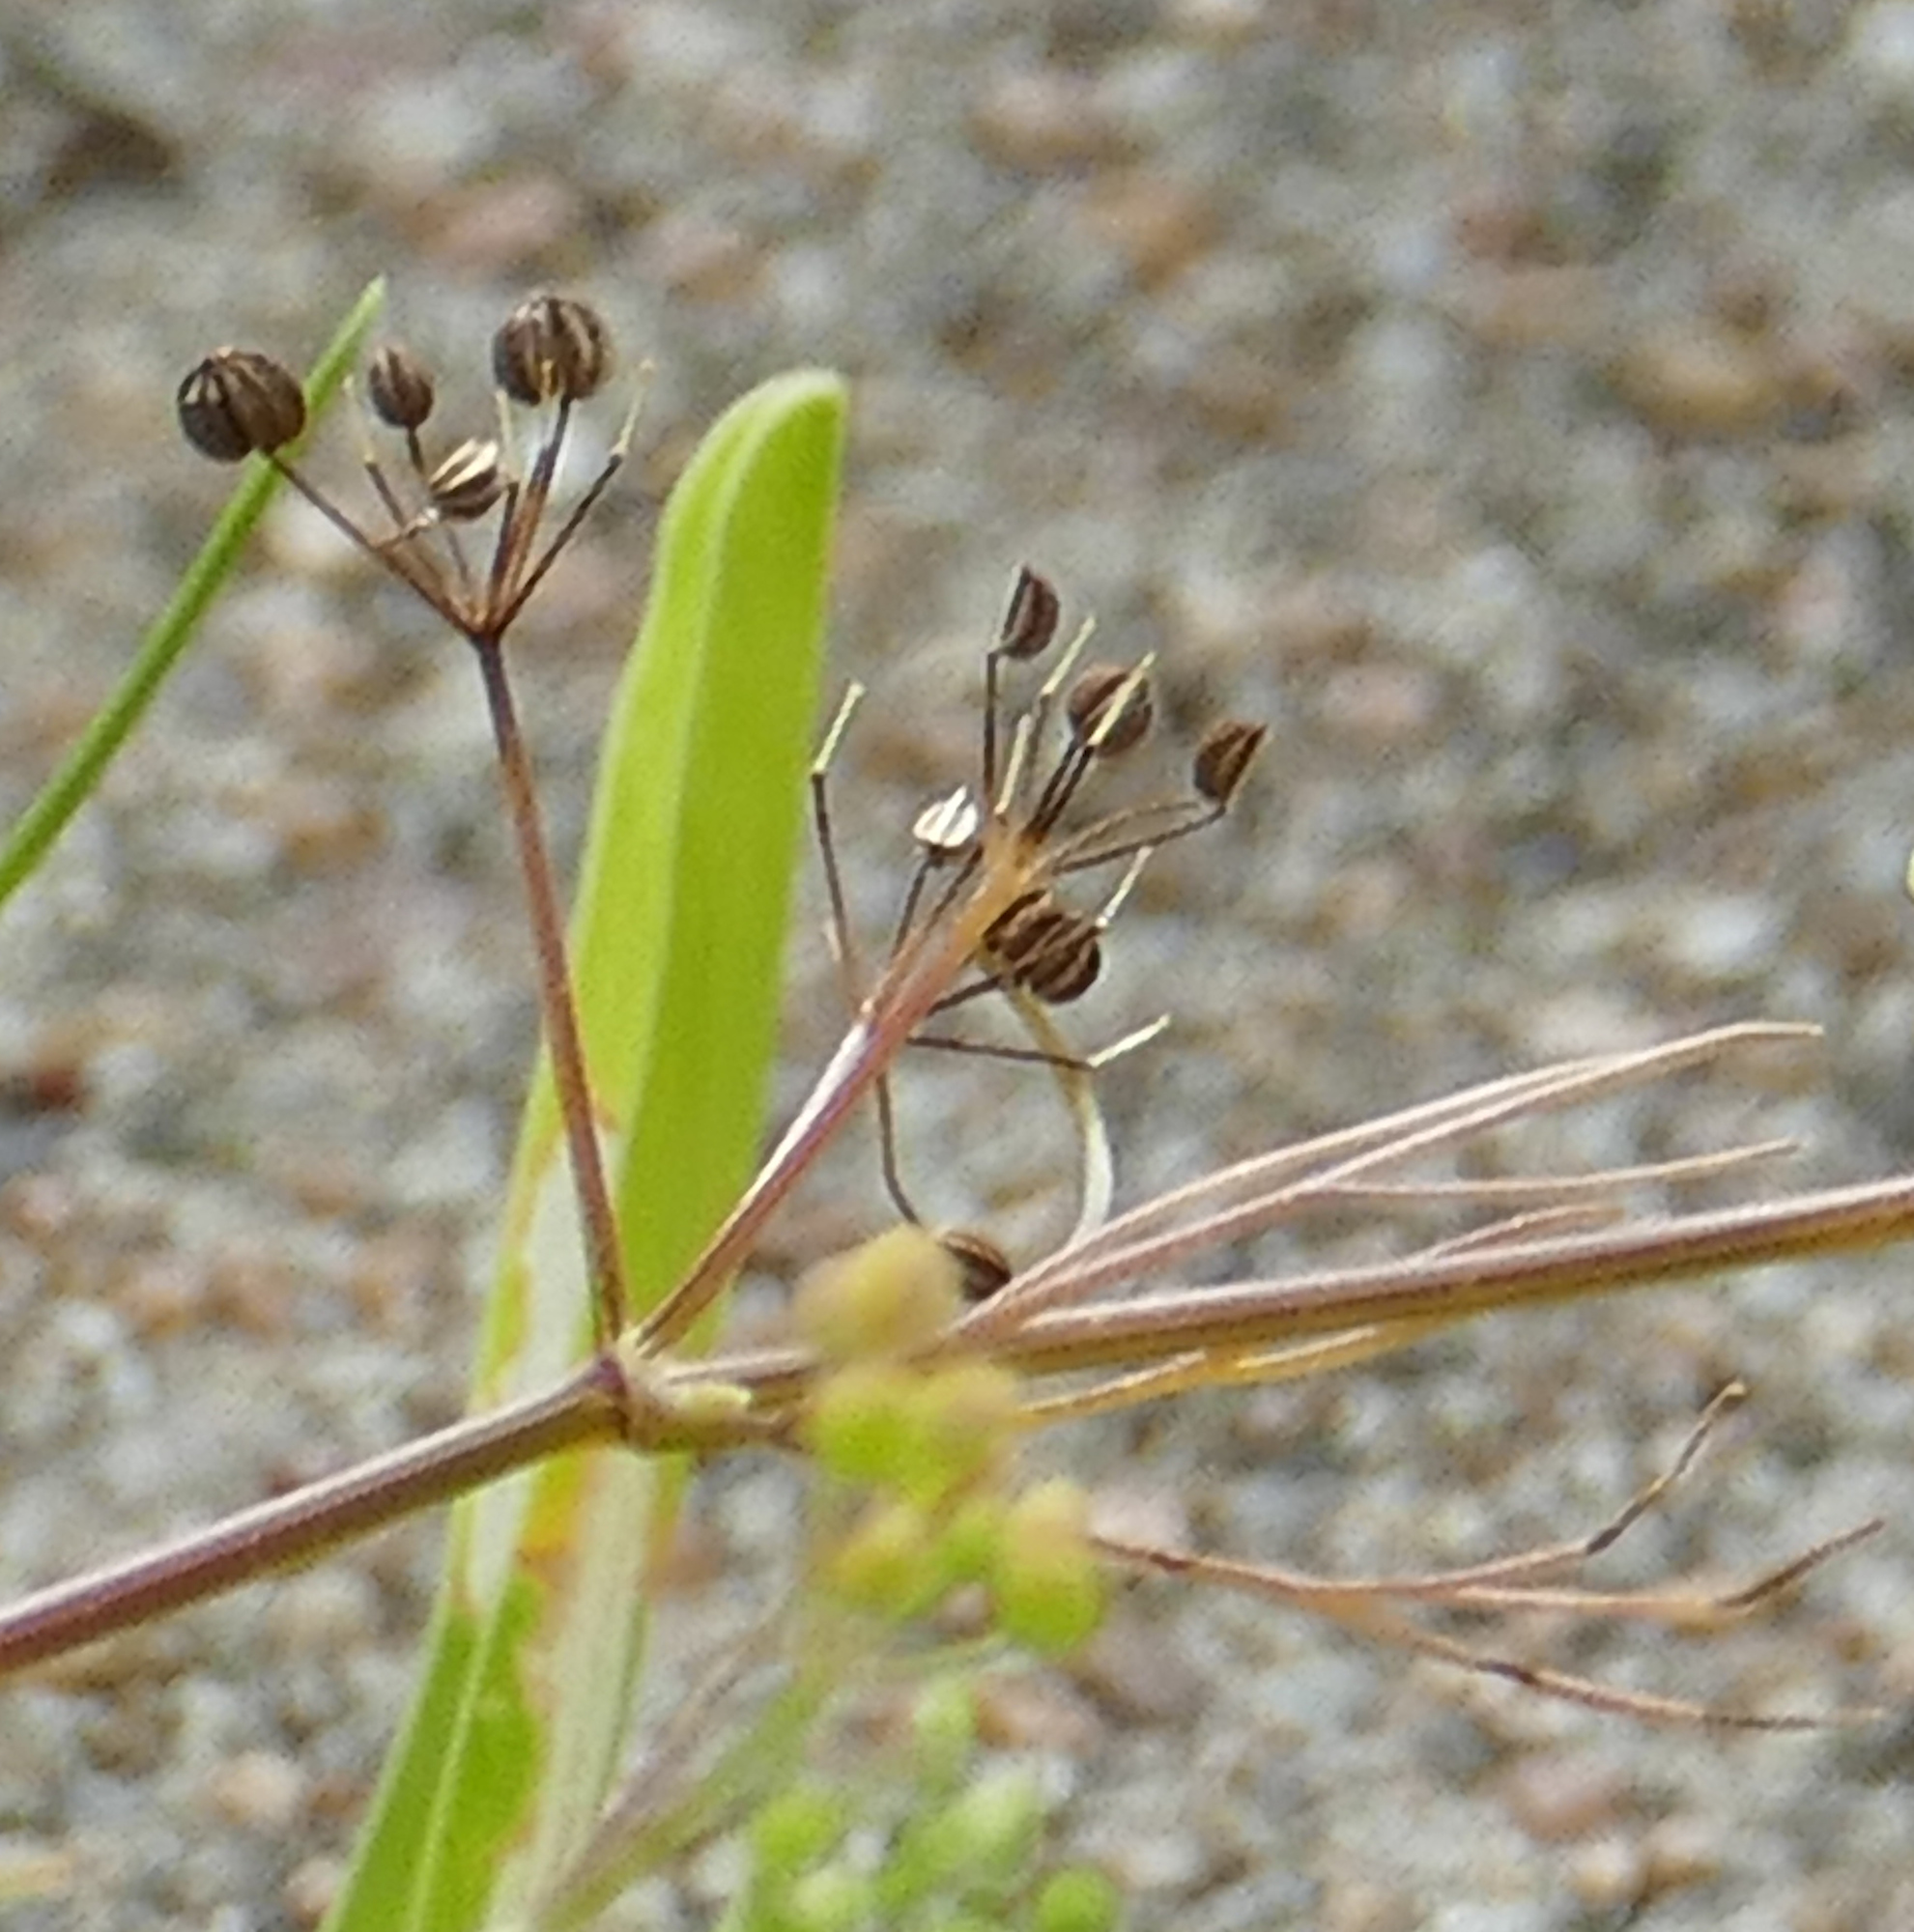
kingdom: Plantae
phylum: Tracheophyta
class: Magnoliopsida
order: Apiales
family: Apiaceae
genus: Cyclospermum
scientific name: Cyclospermum leptophyllum
